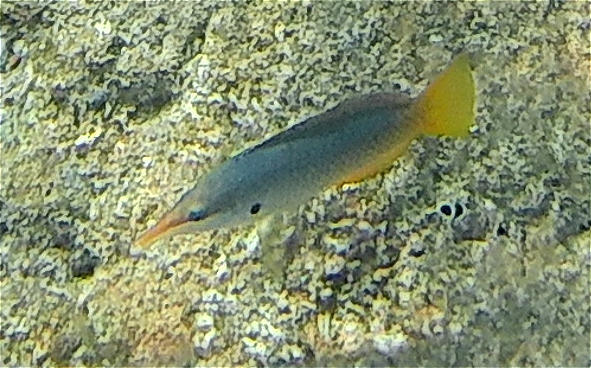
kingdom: Animalia
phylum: Chordata
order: Perciformes
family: Labridae
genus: Gomphosus
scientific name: Gomphosus klunzingeri
